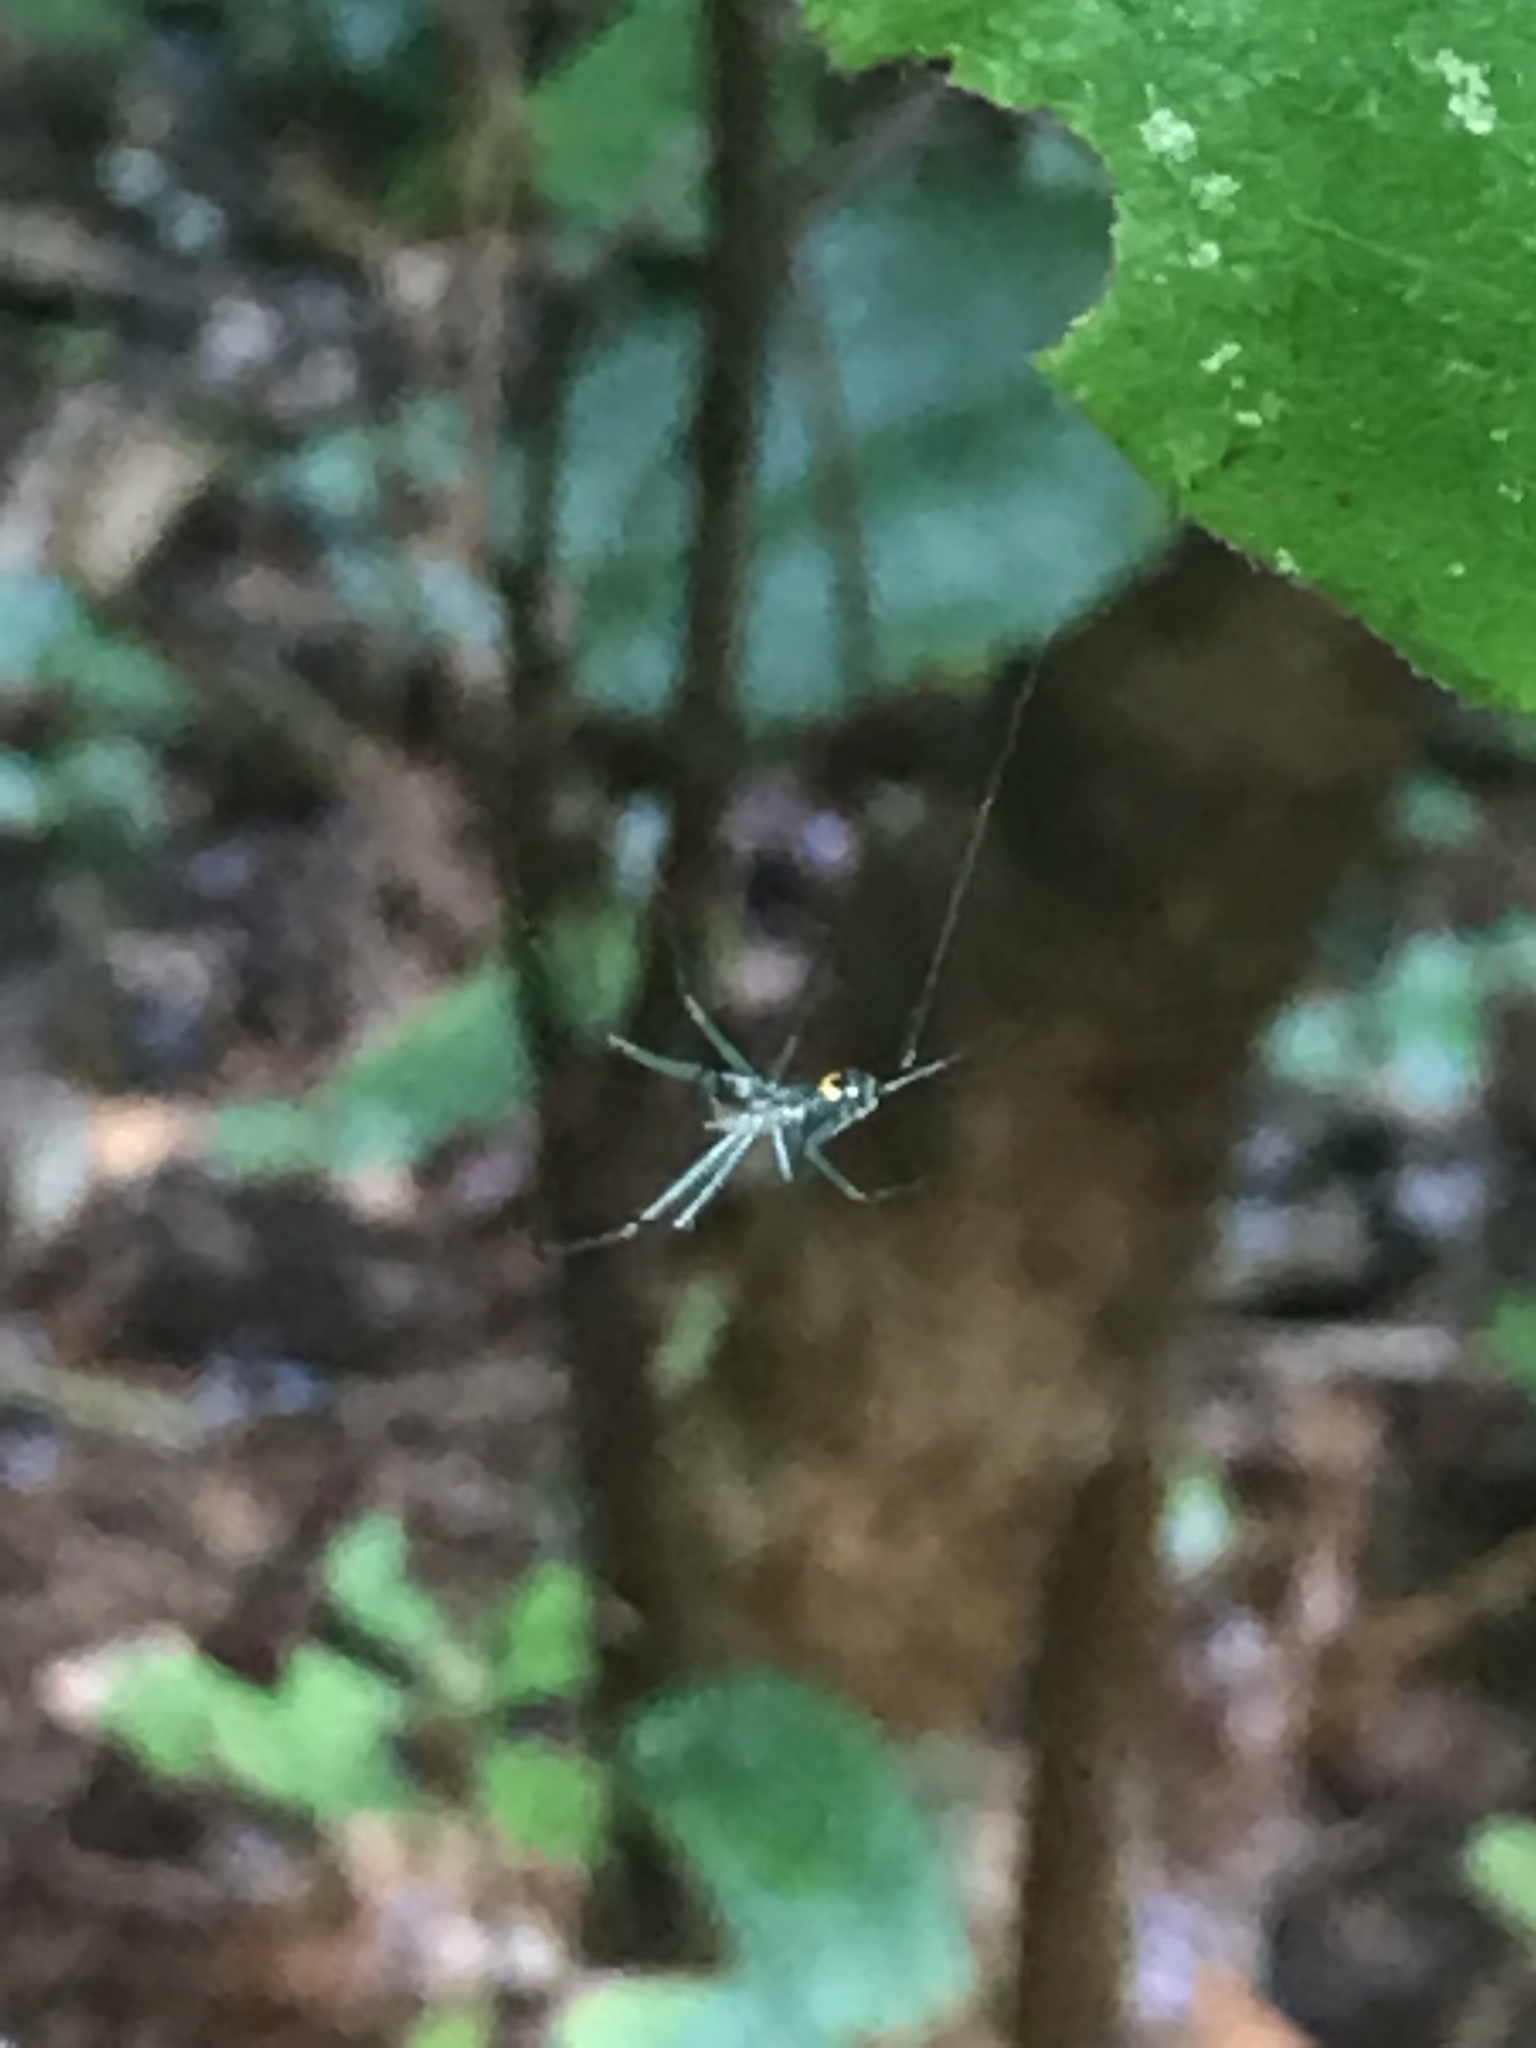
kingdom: Animalia
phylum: Arthropoda
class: Arachnida
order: Araneae
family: Tetragnathidae
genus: Leucauge
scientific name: Leucauge venusta
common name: Longjawed orb weavers
